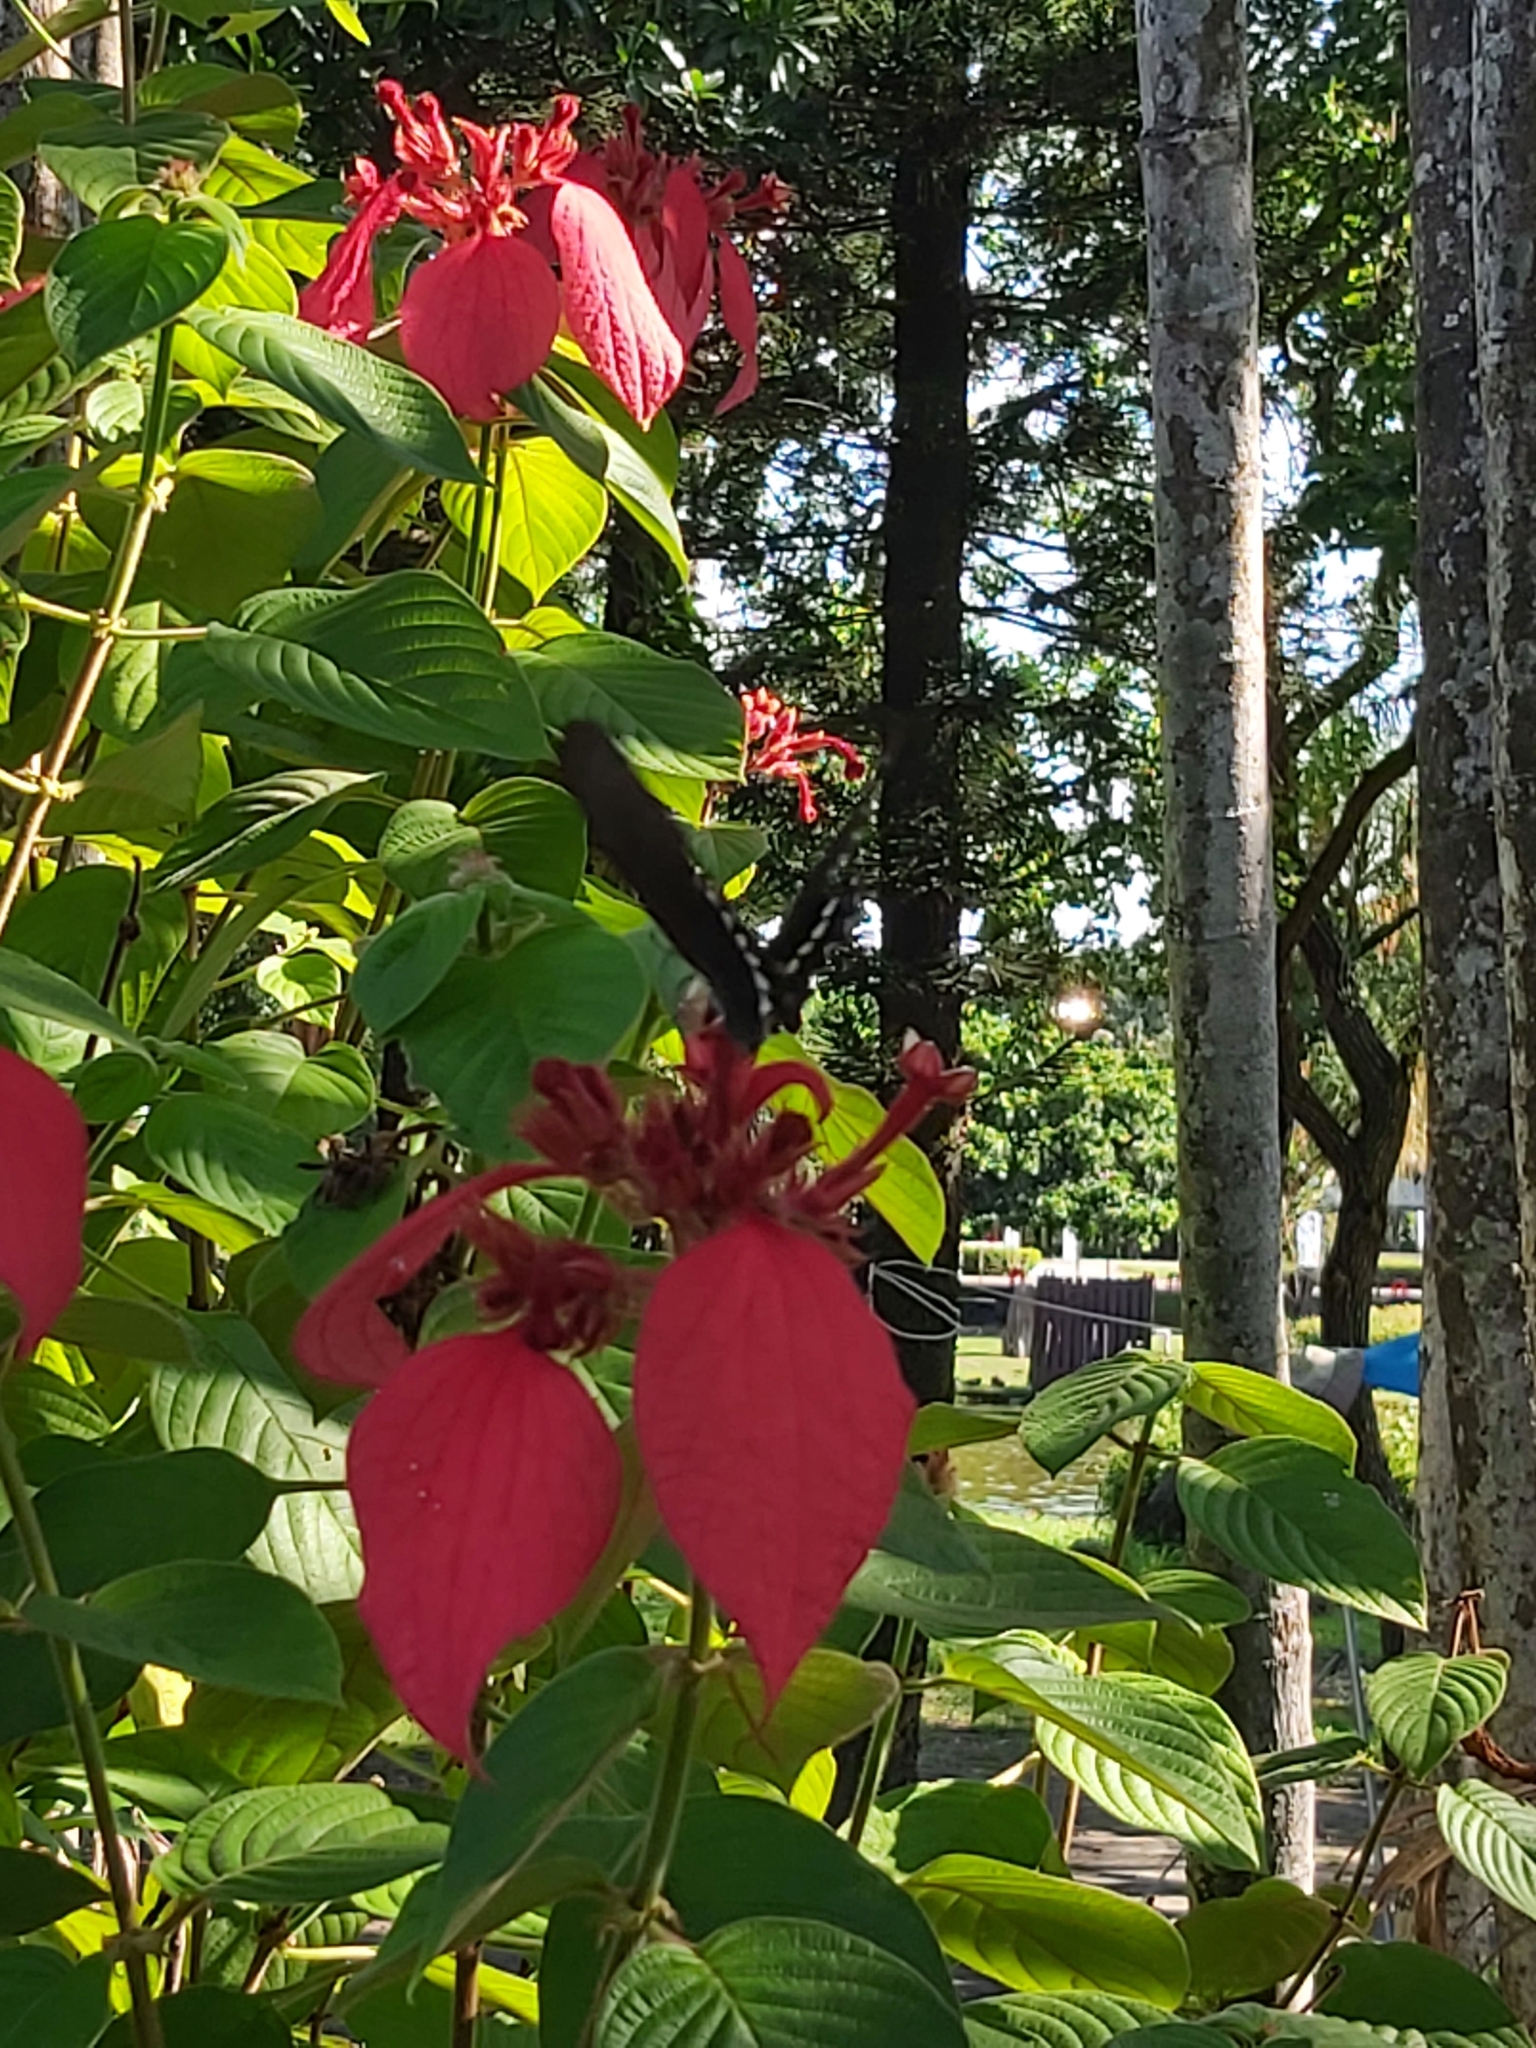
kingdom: Animalia
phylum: Arthropoda
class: Insecta
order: Lepidoptera
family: Papilionidae
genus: Papilio
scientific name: Papilio polytes
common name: Common mormon
